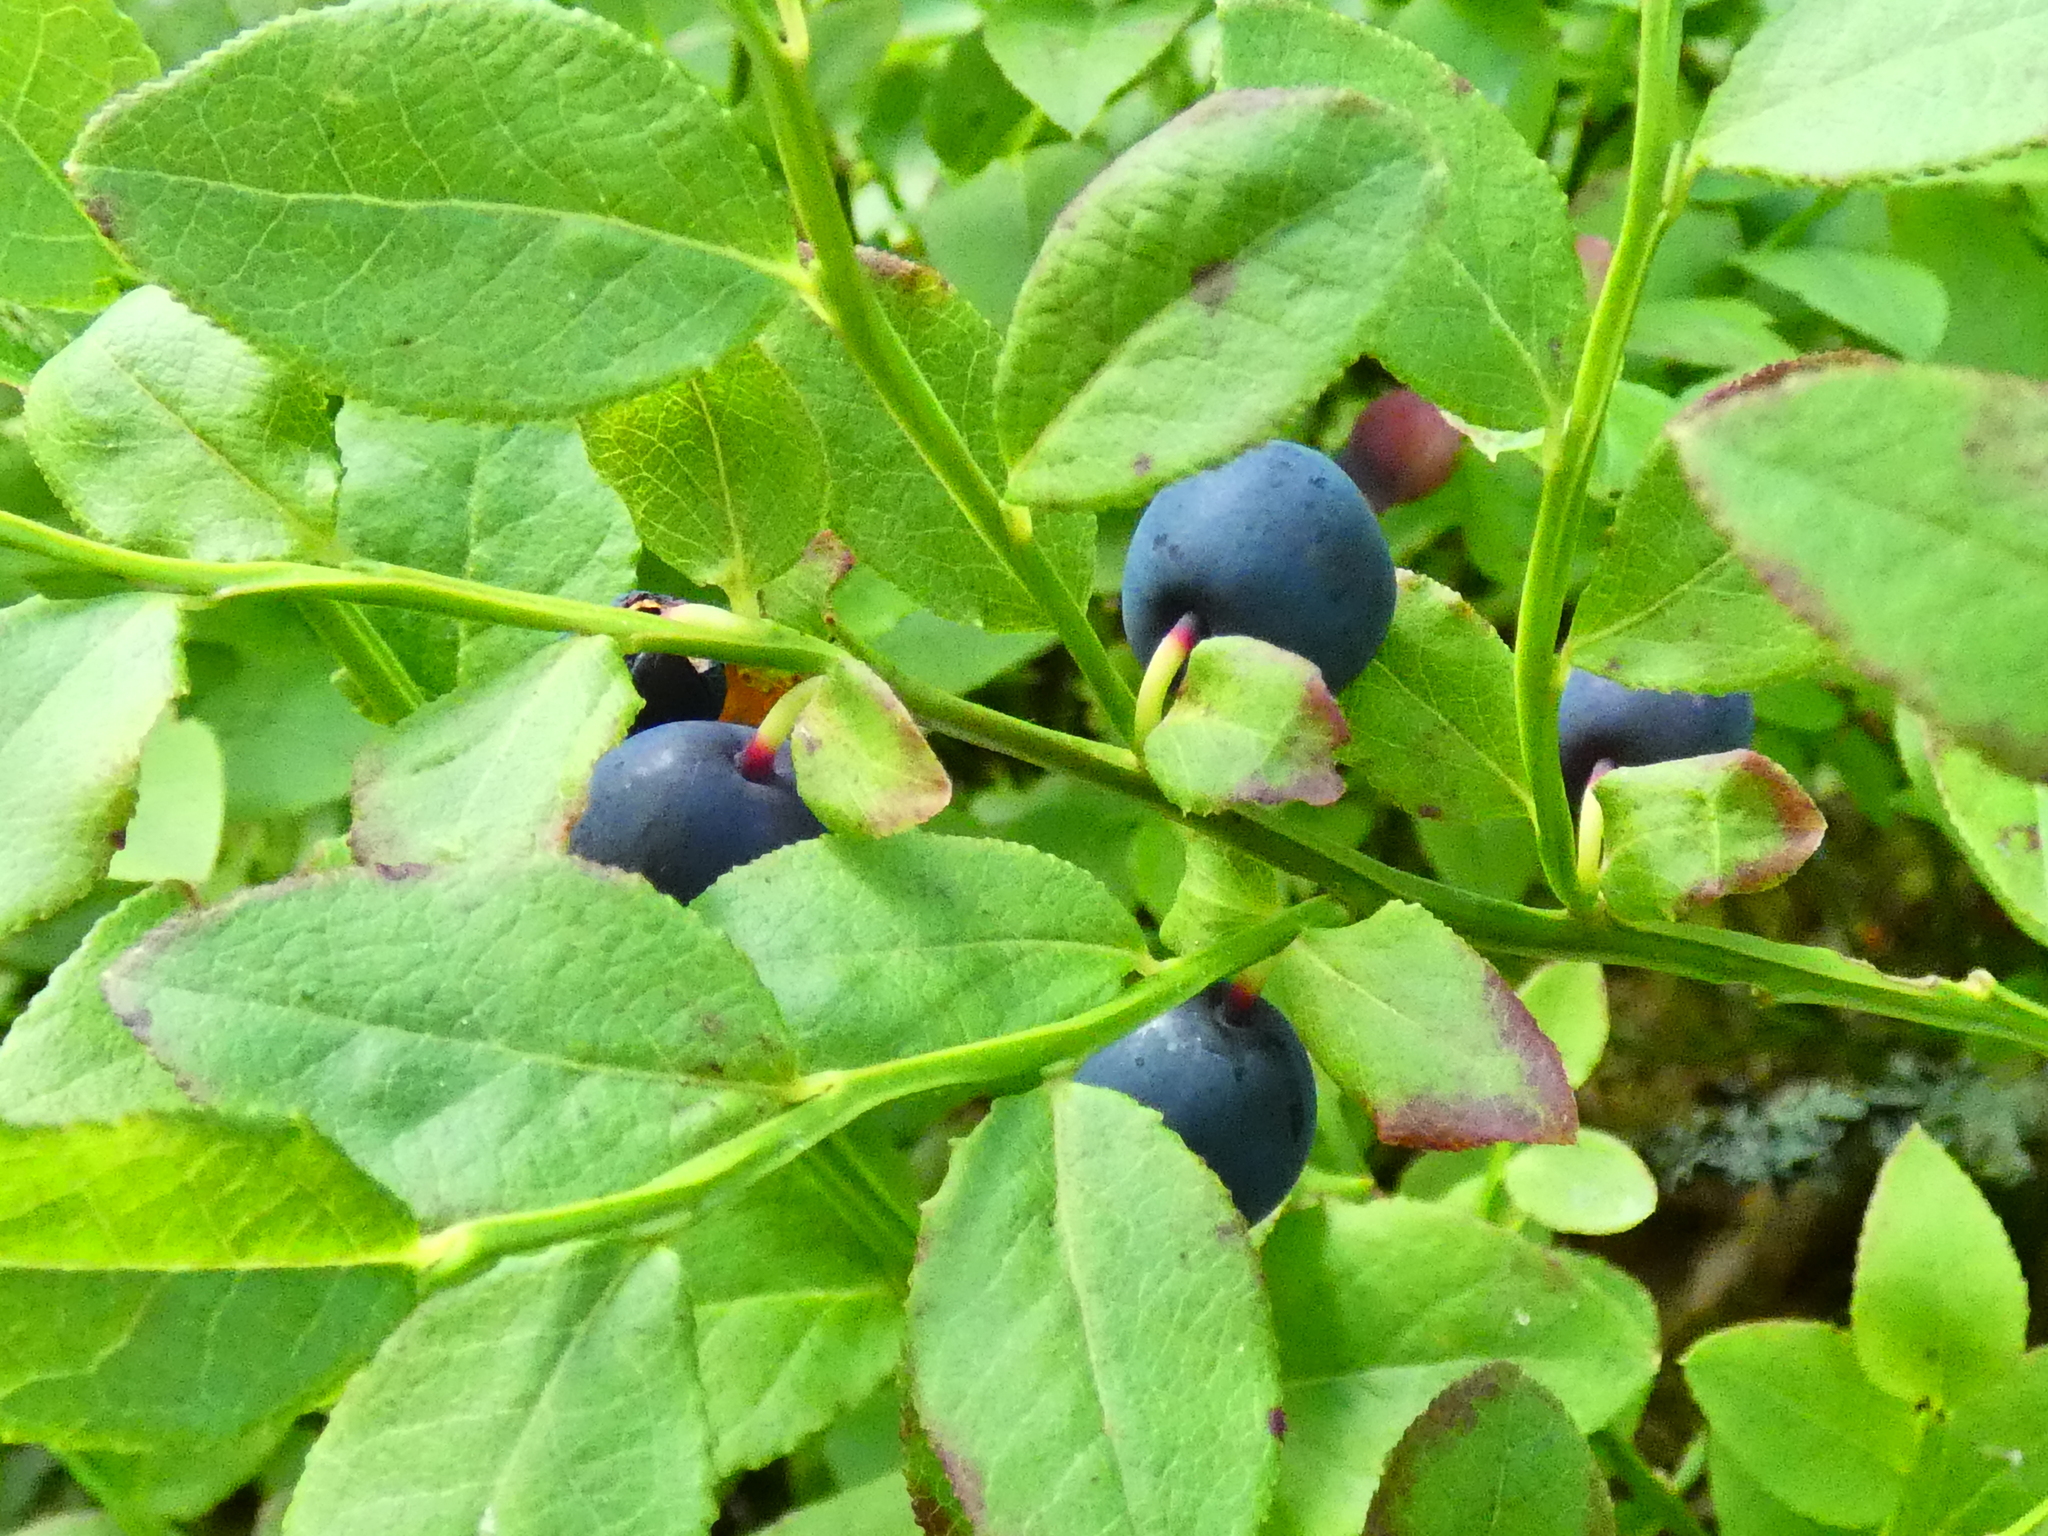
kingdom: Plantae
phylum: Tracheophyta
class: Magnoliopsida
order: Ericales
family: Ericaceae
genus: Vaccinium
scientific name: Vaccinium myrtillus
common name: Bilberry
